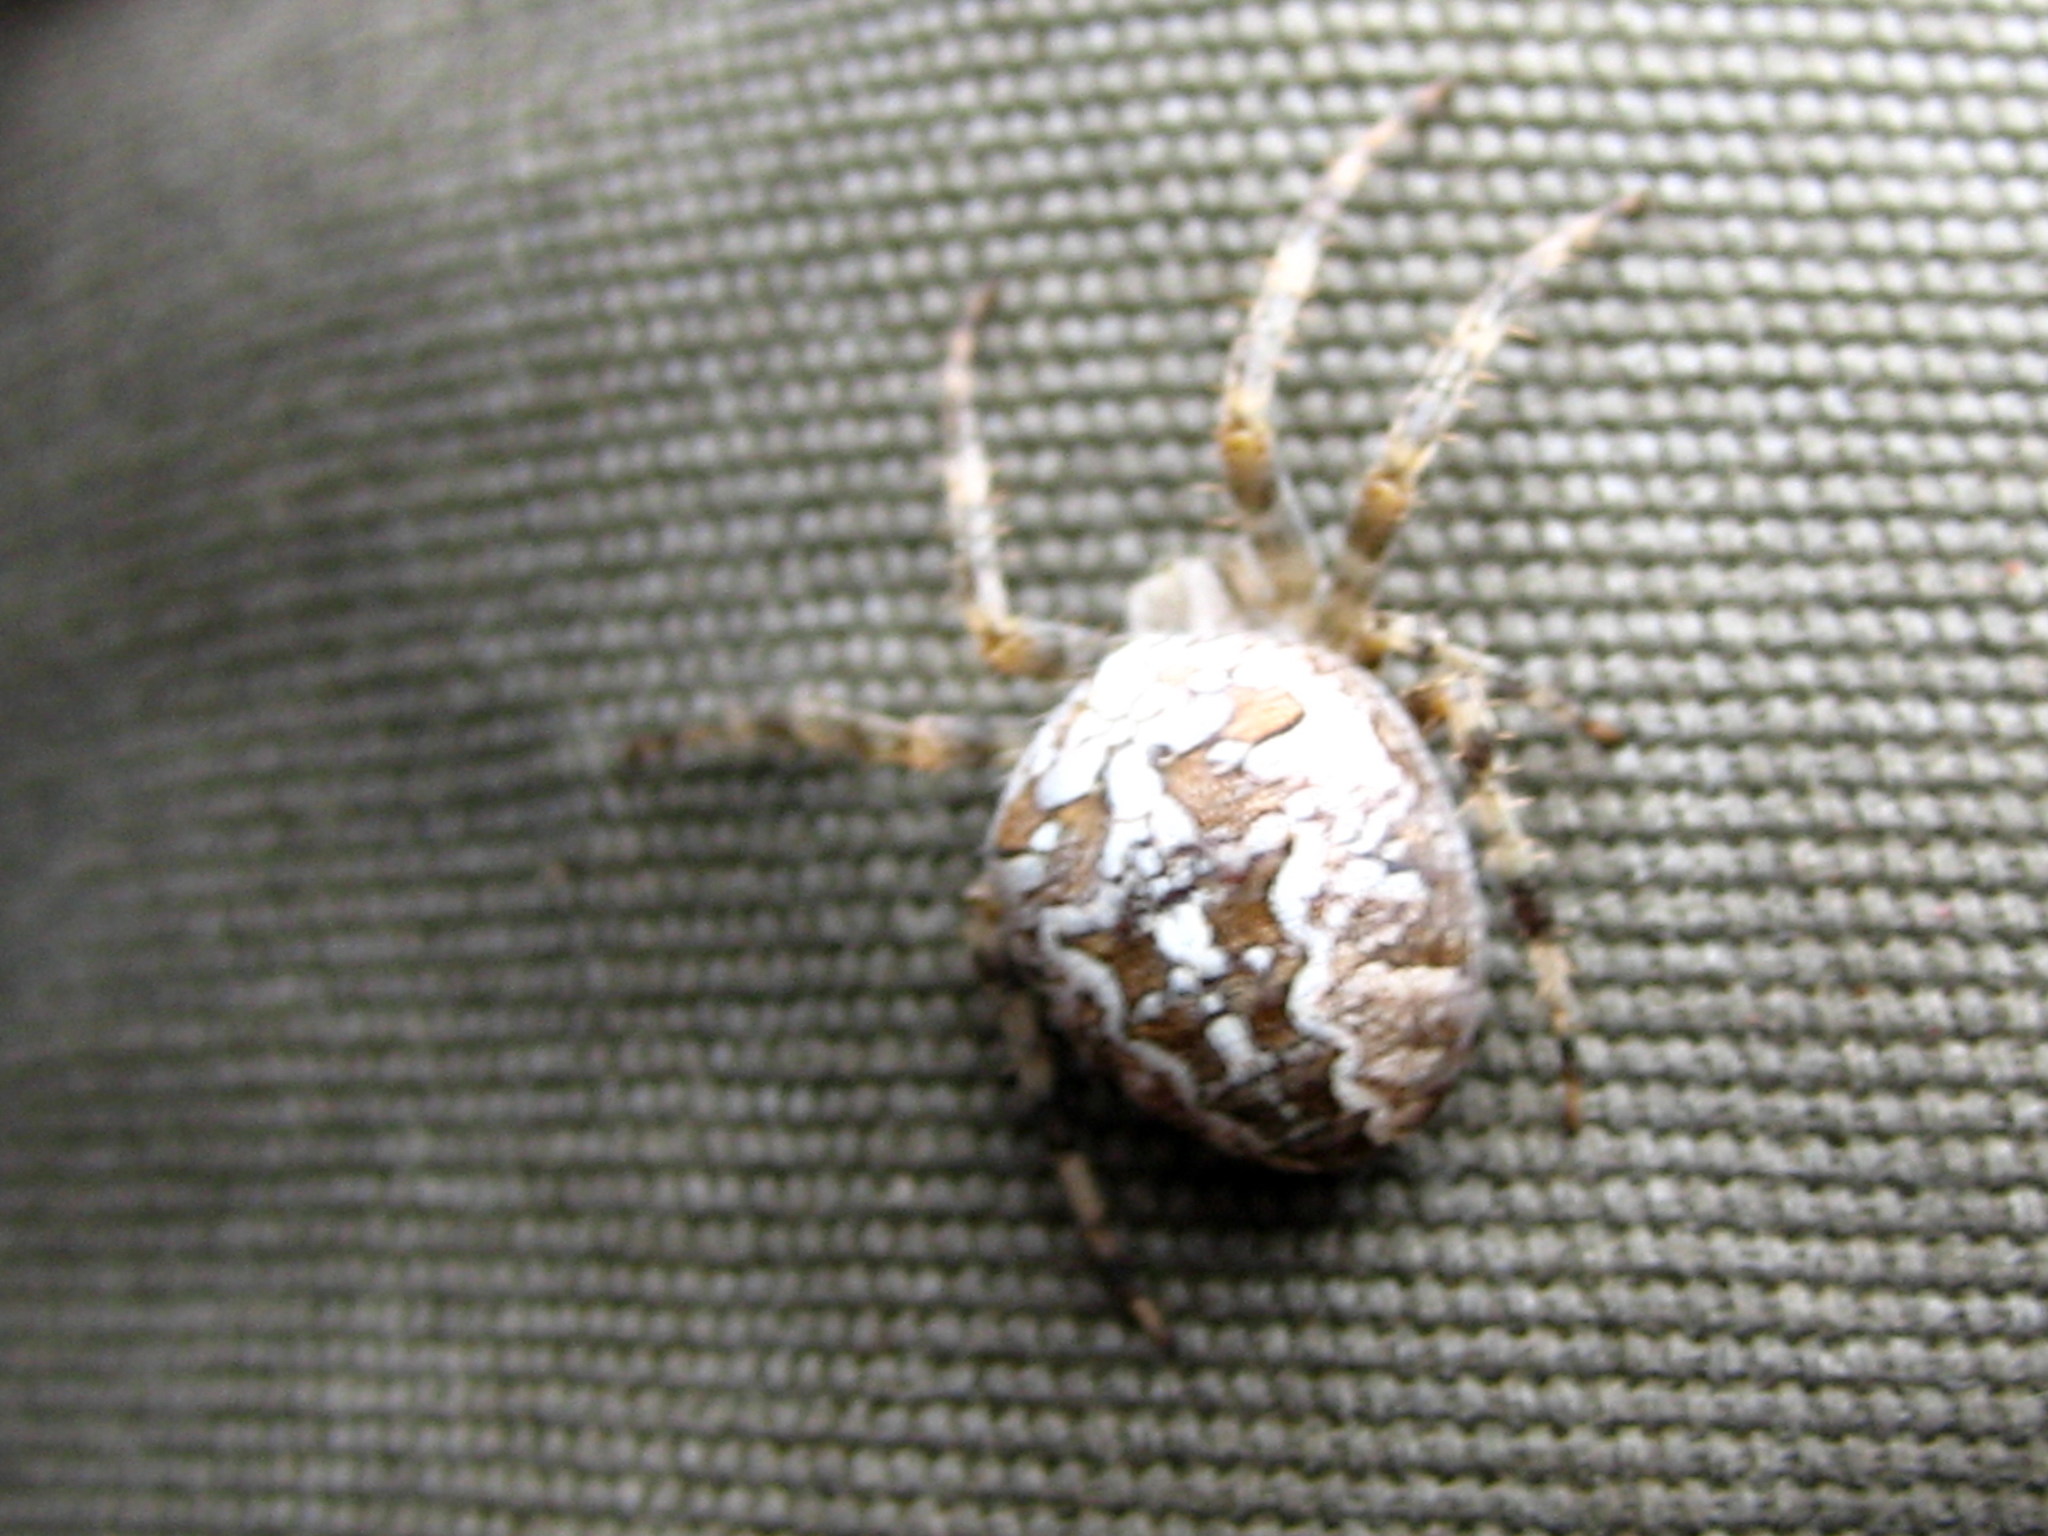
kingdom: Animalia
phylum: Arthropoda
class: Arachnida
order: Araneae
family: Araneidae
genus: Araneus
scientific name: Araneus diadematus
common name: Cross orbweaver
